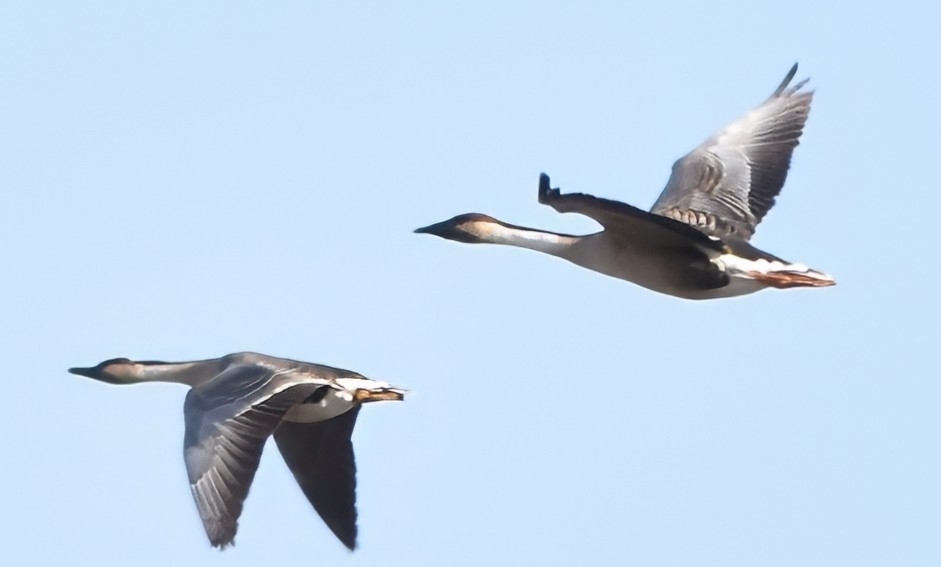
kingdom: Animalia
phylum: Chordata
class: Aves
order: Anseriformes
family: Anatidae
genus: Anser
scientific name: Anser cygnoides
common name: Swan goose
